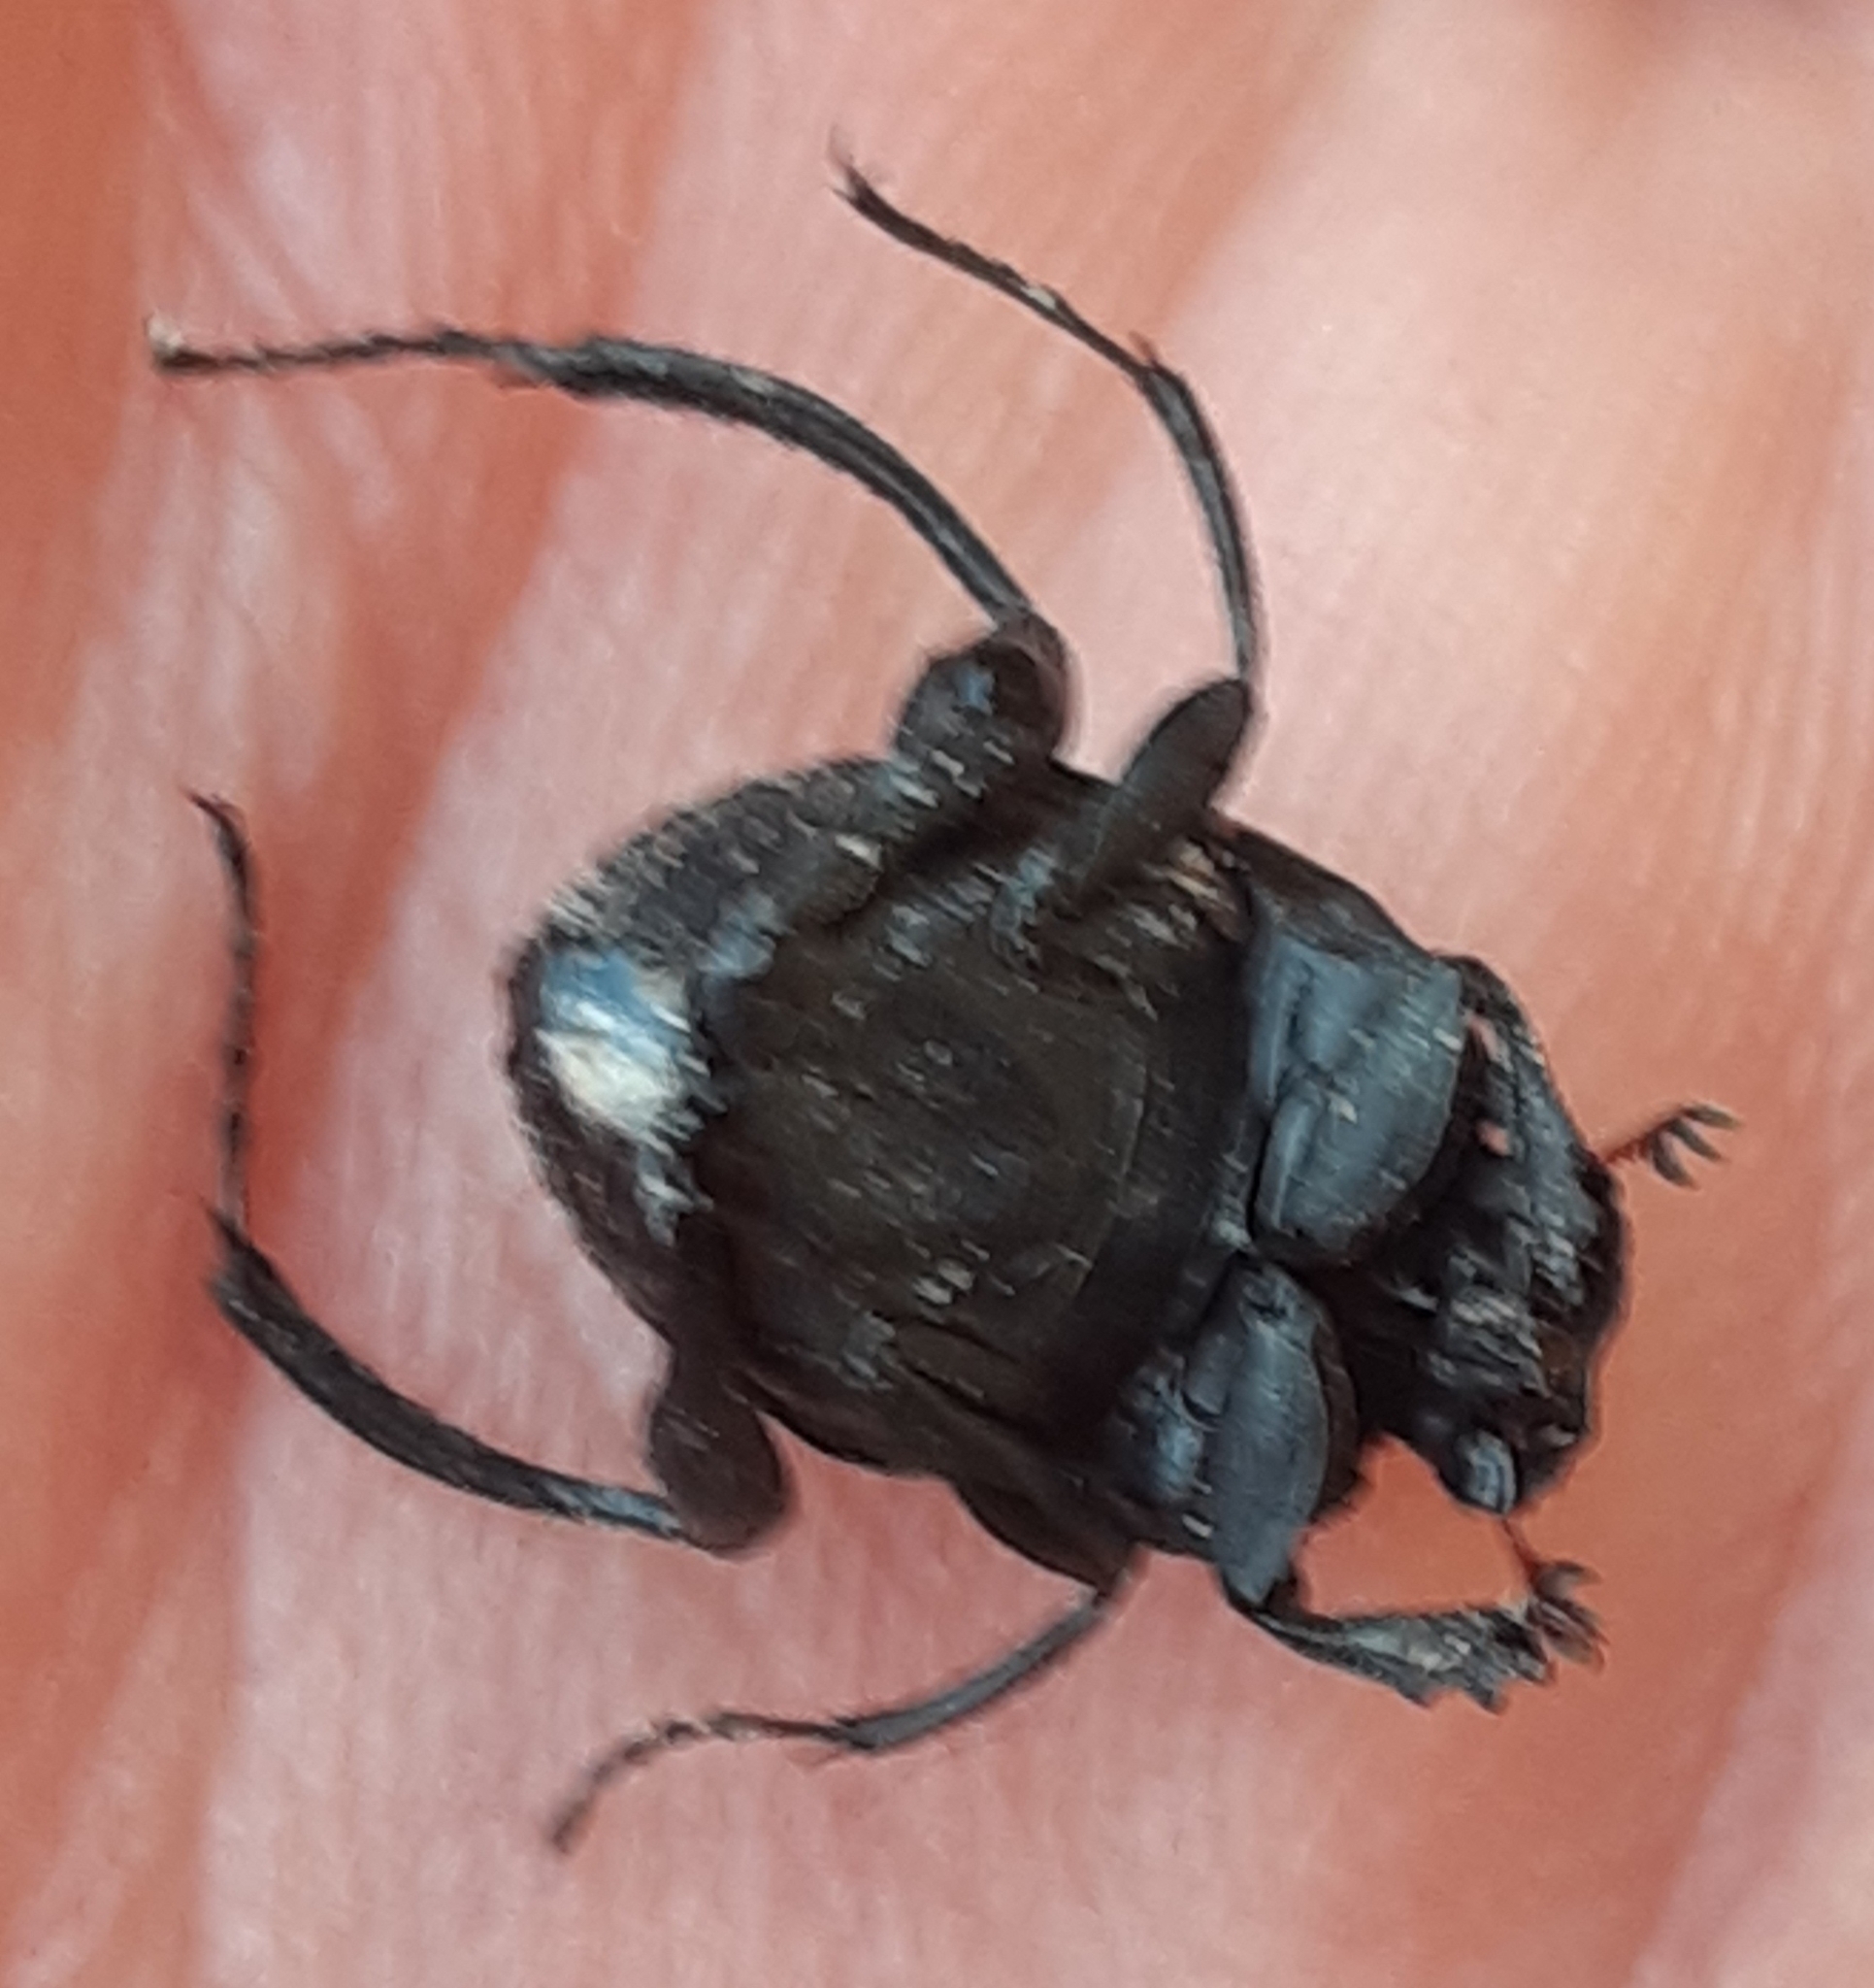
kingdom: Animalia
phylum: Arthropoda
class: Insecta
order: Coleoptera
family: Scarabaeidae
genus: Sisyphus
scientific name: Sisyphus schaefferi
